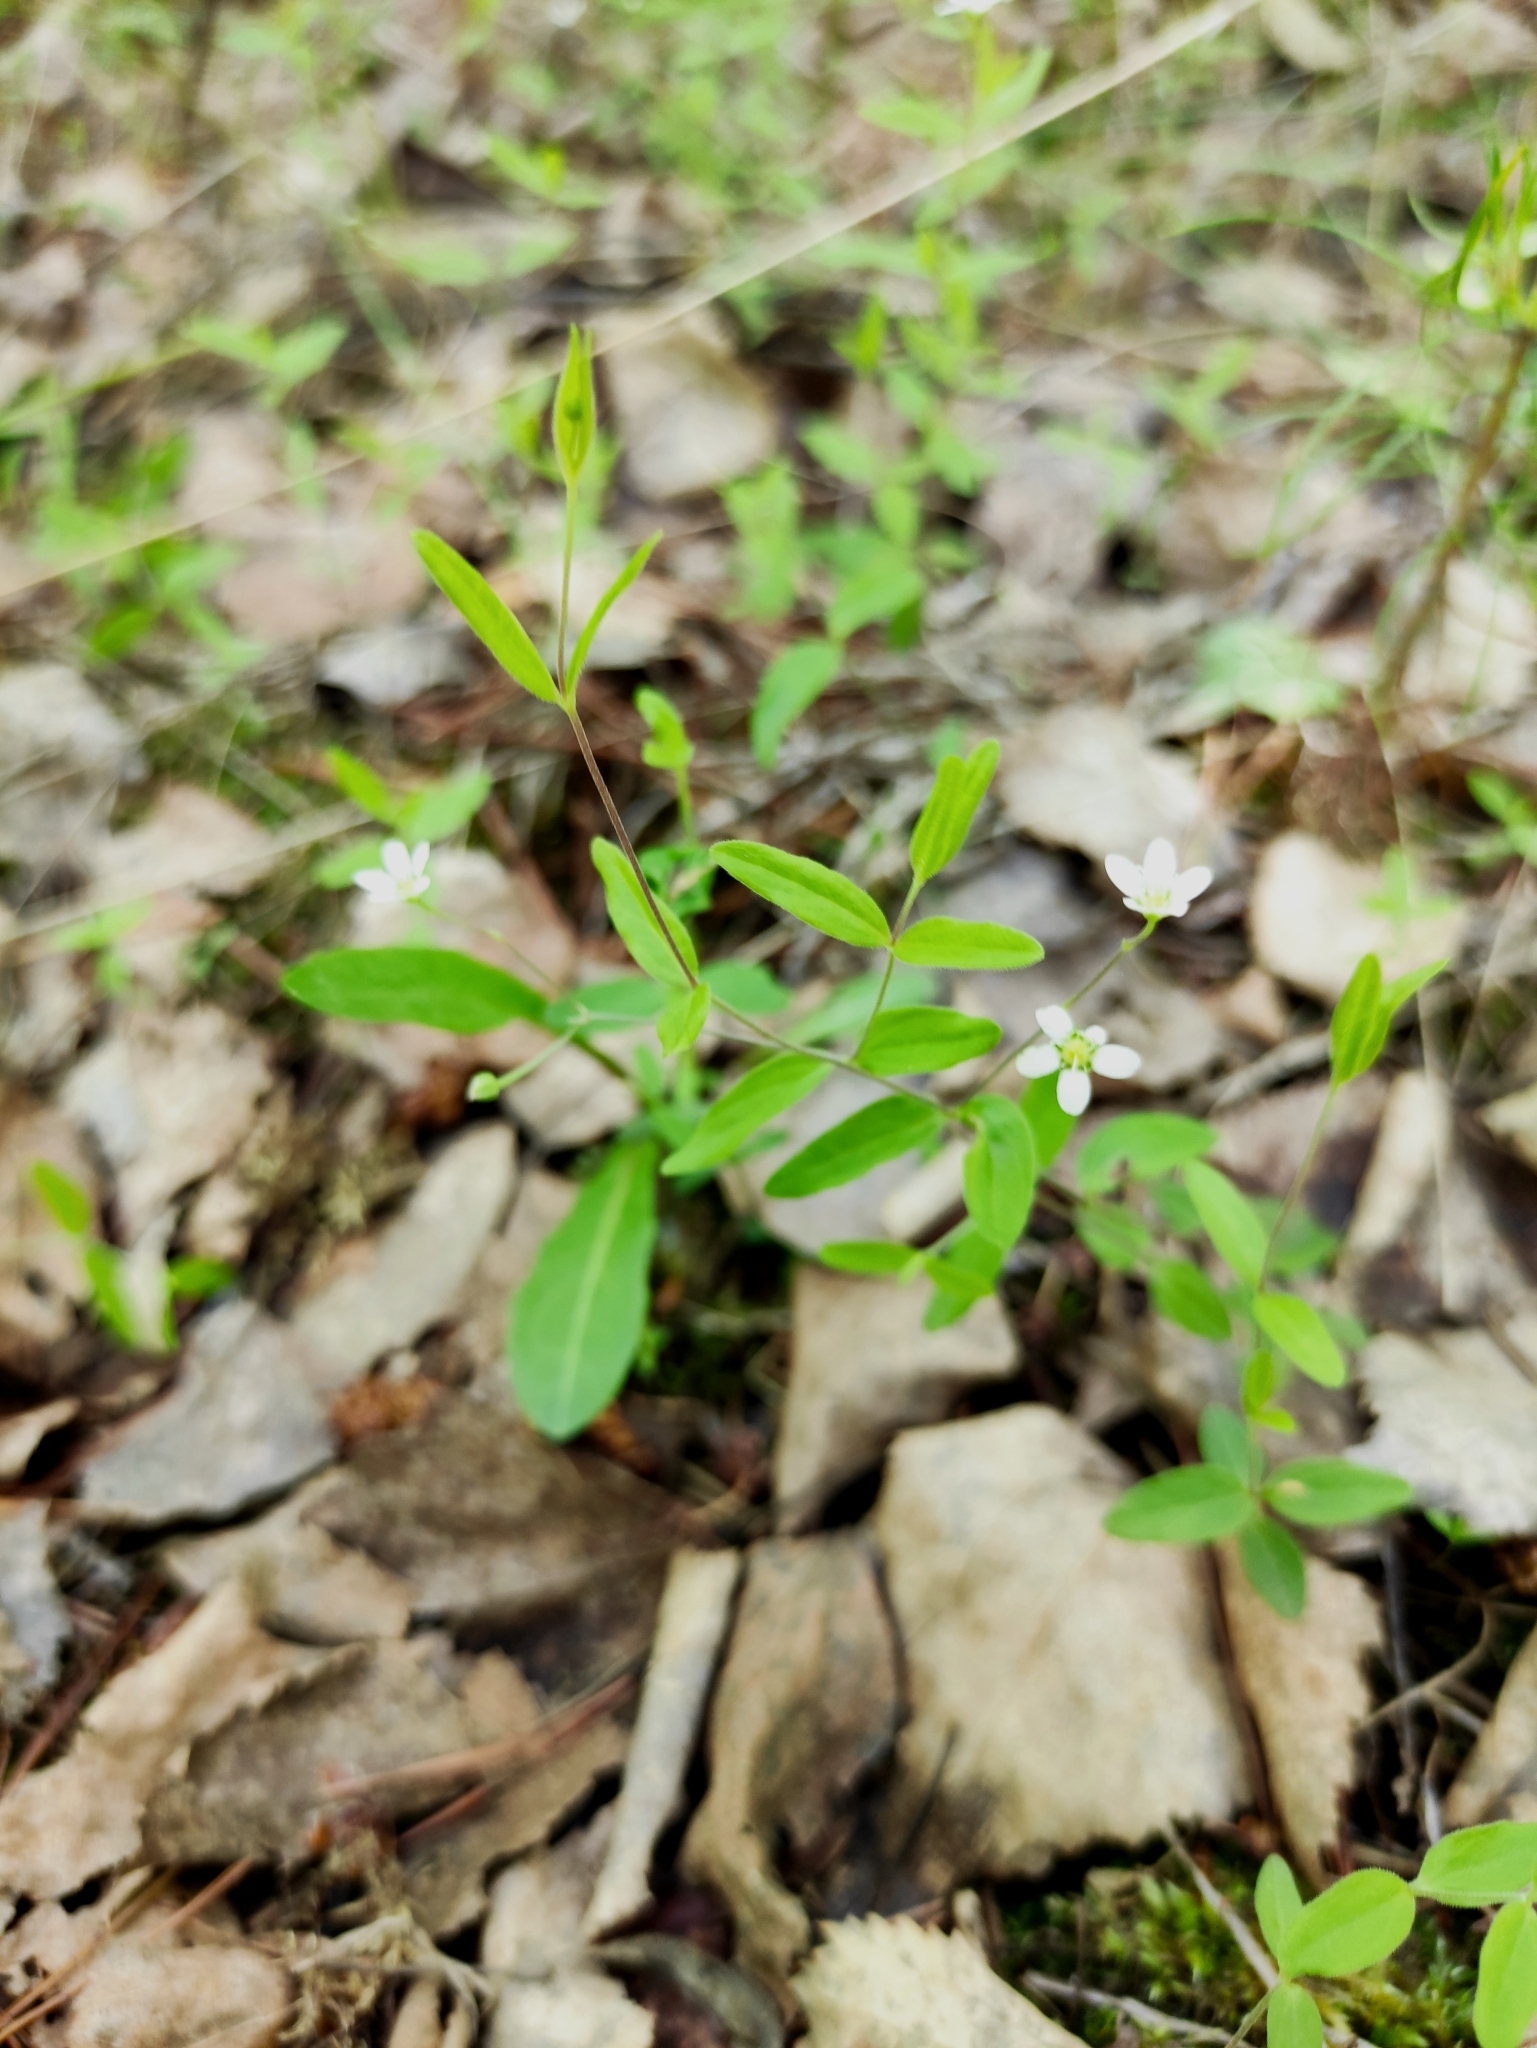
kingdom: Plantae
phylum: Tracheophyta
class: Magnoliopsida
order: Caryophyllales
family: Caryophyllaceae
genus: Moehringia
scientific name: Moehringia lateriflora
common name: Blunt-leaved sandwort
